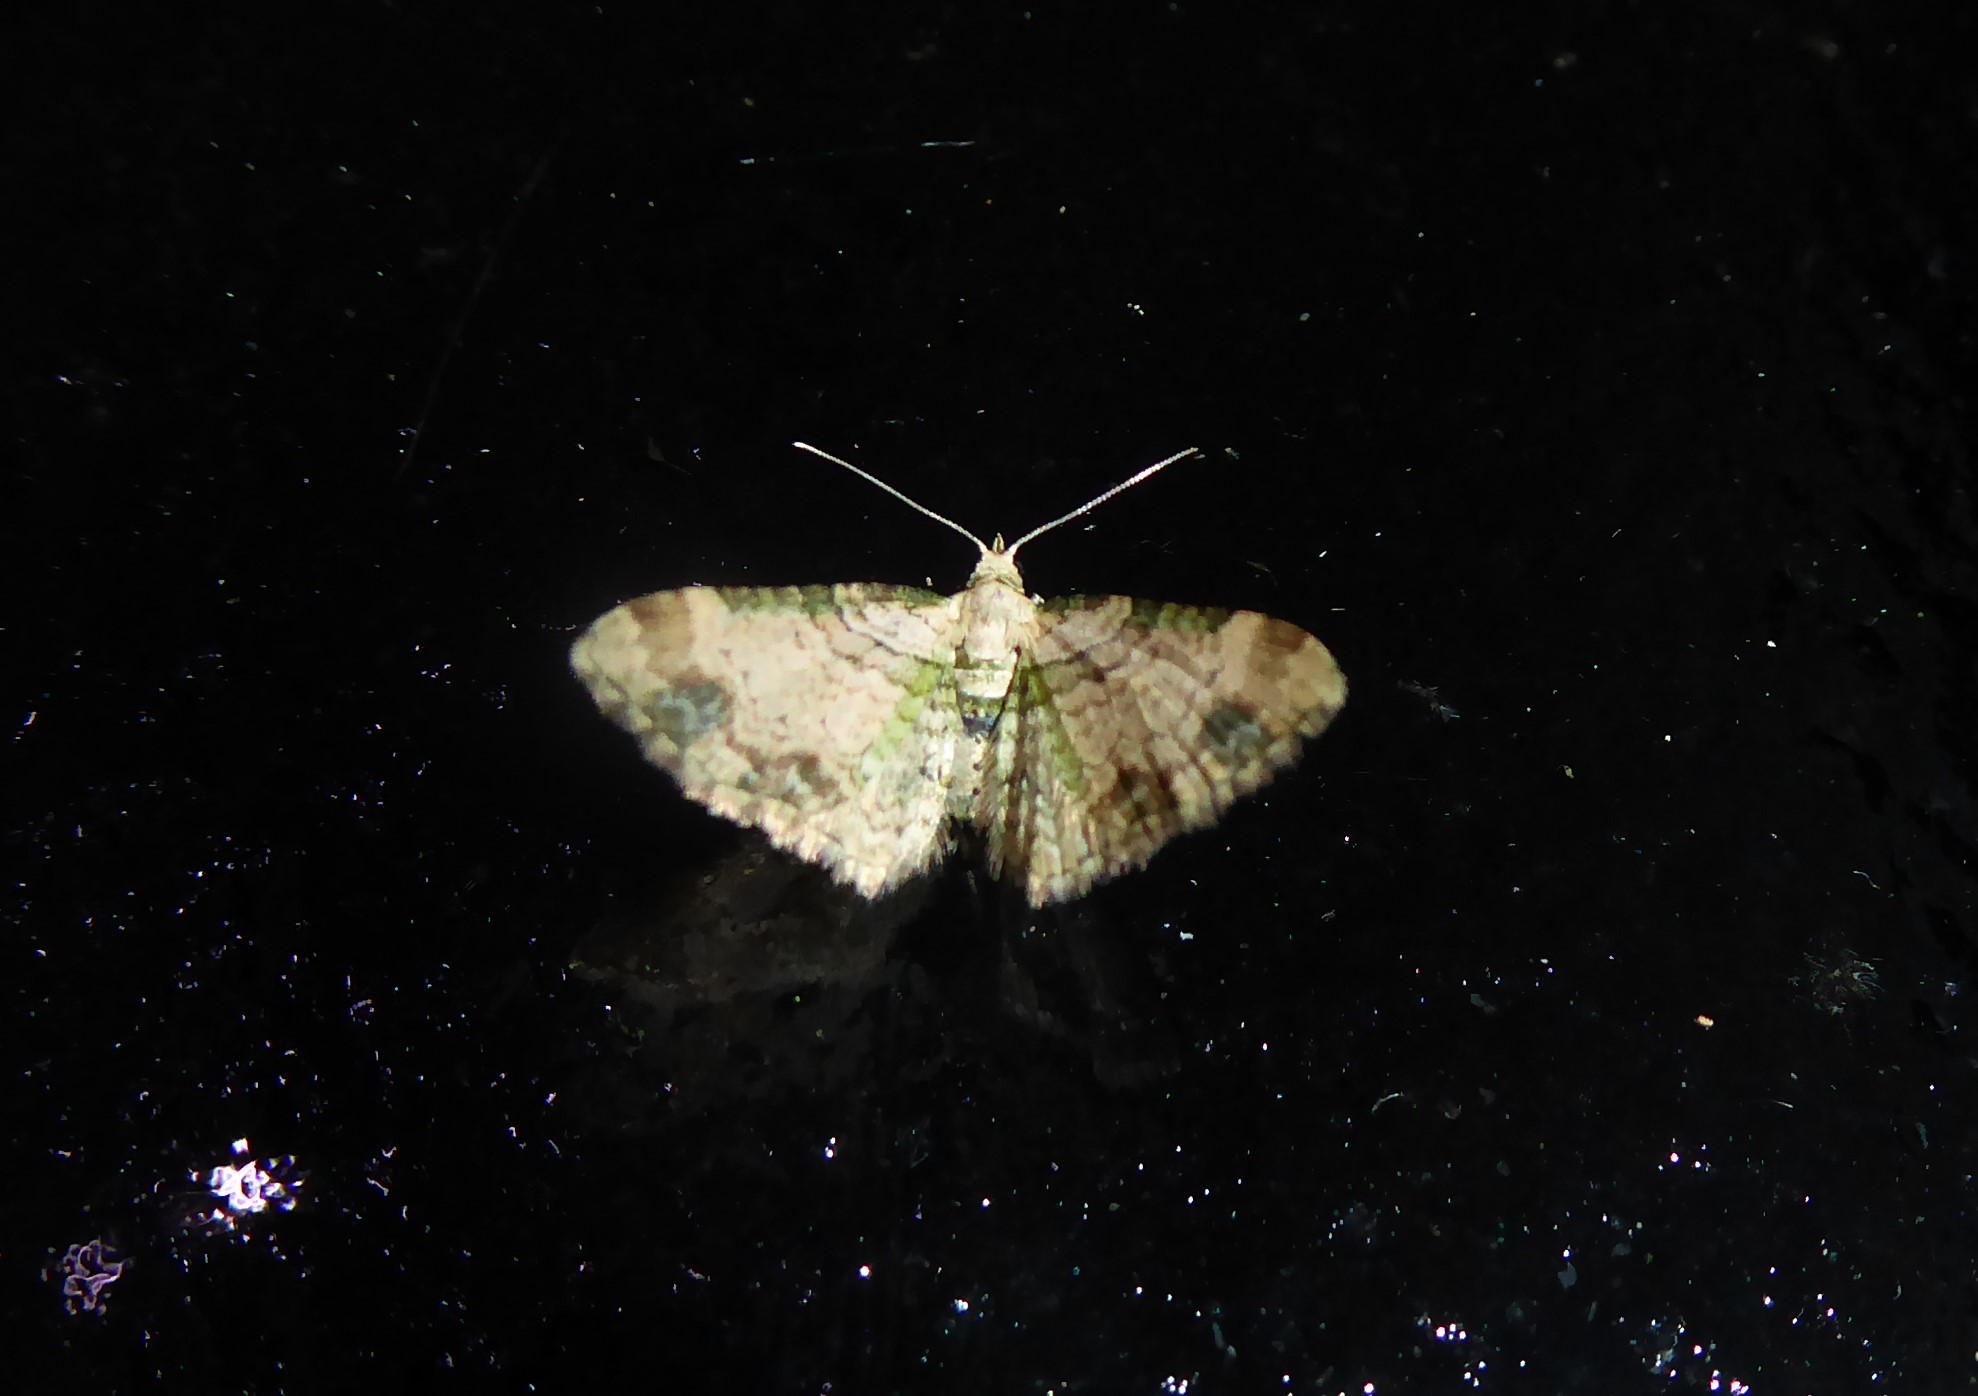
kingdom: Animalia
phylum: Arthropoda
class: Insecta
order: Lepidoptera
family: Geometridae
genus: Chloroclystis
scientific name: Chloroclystis
